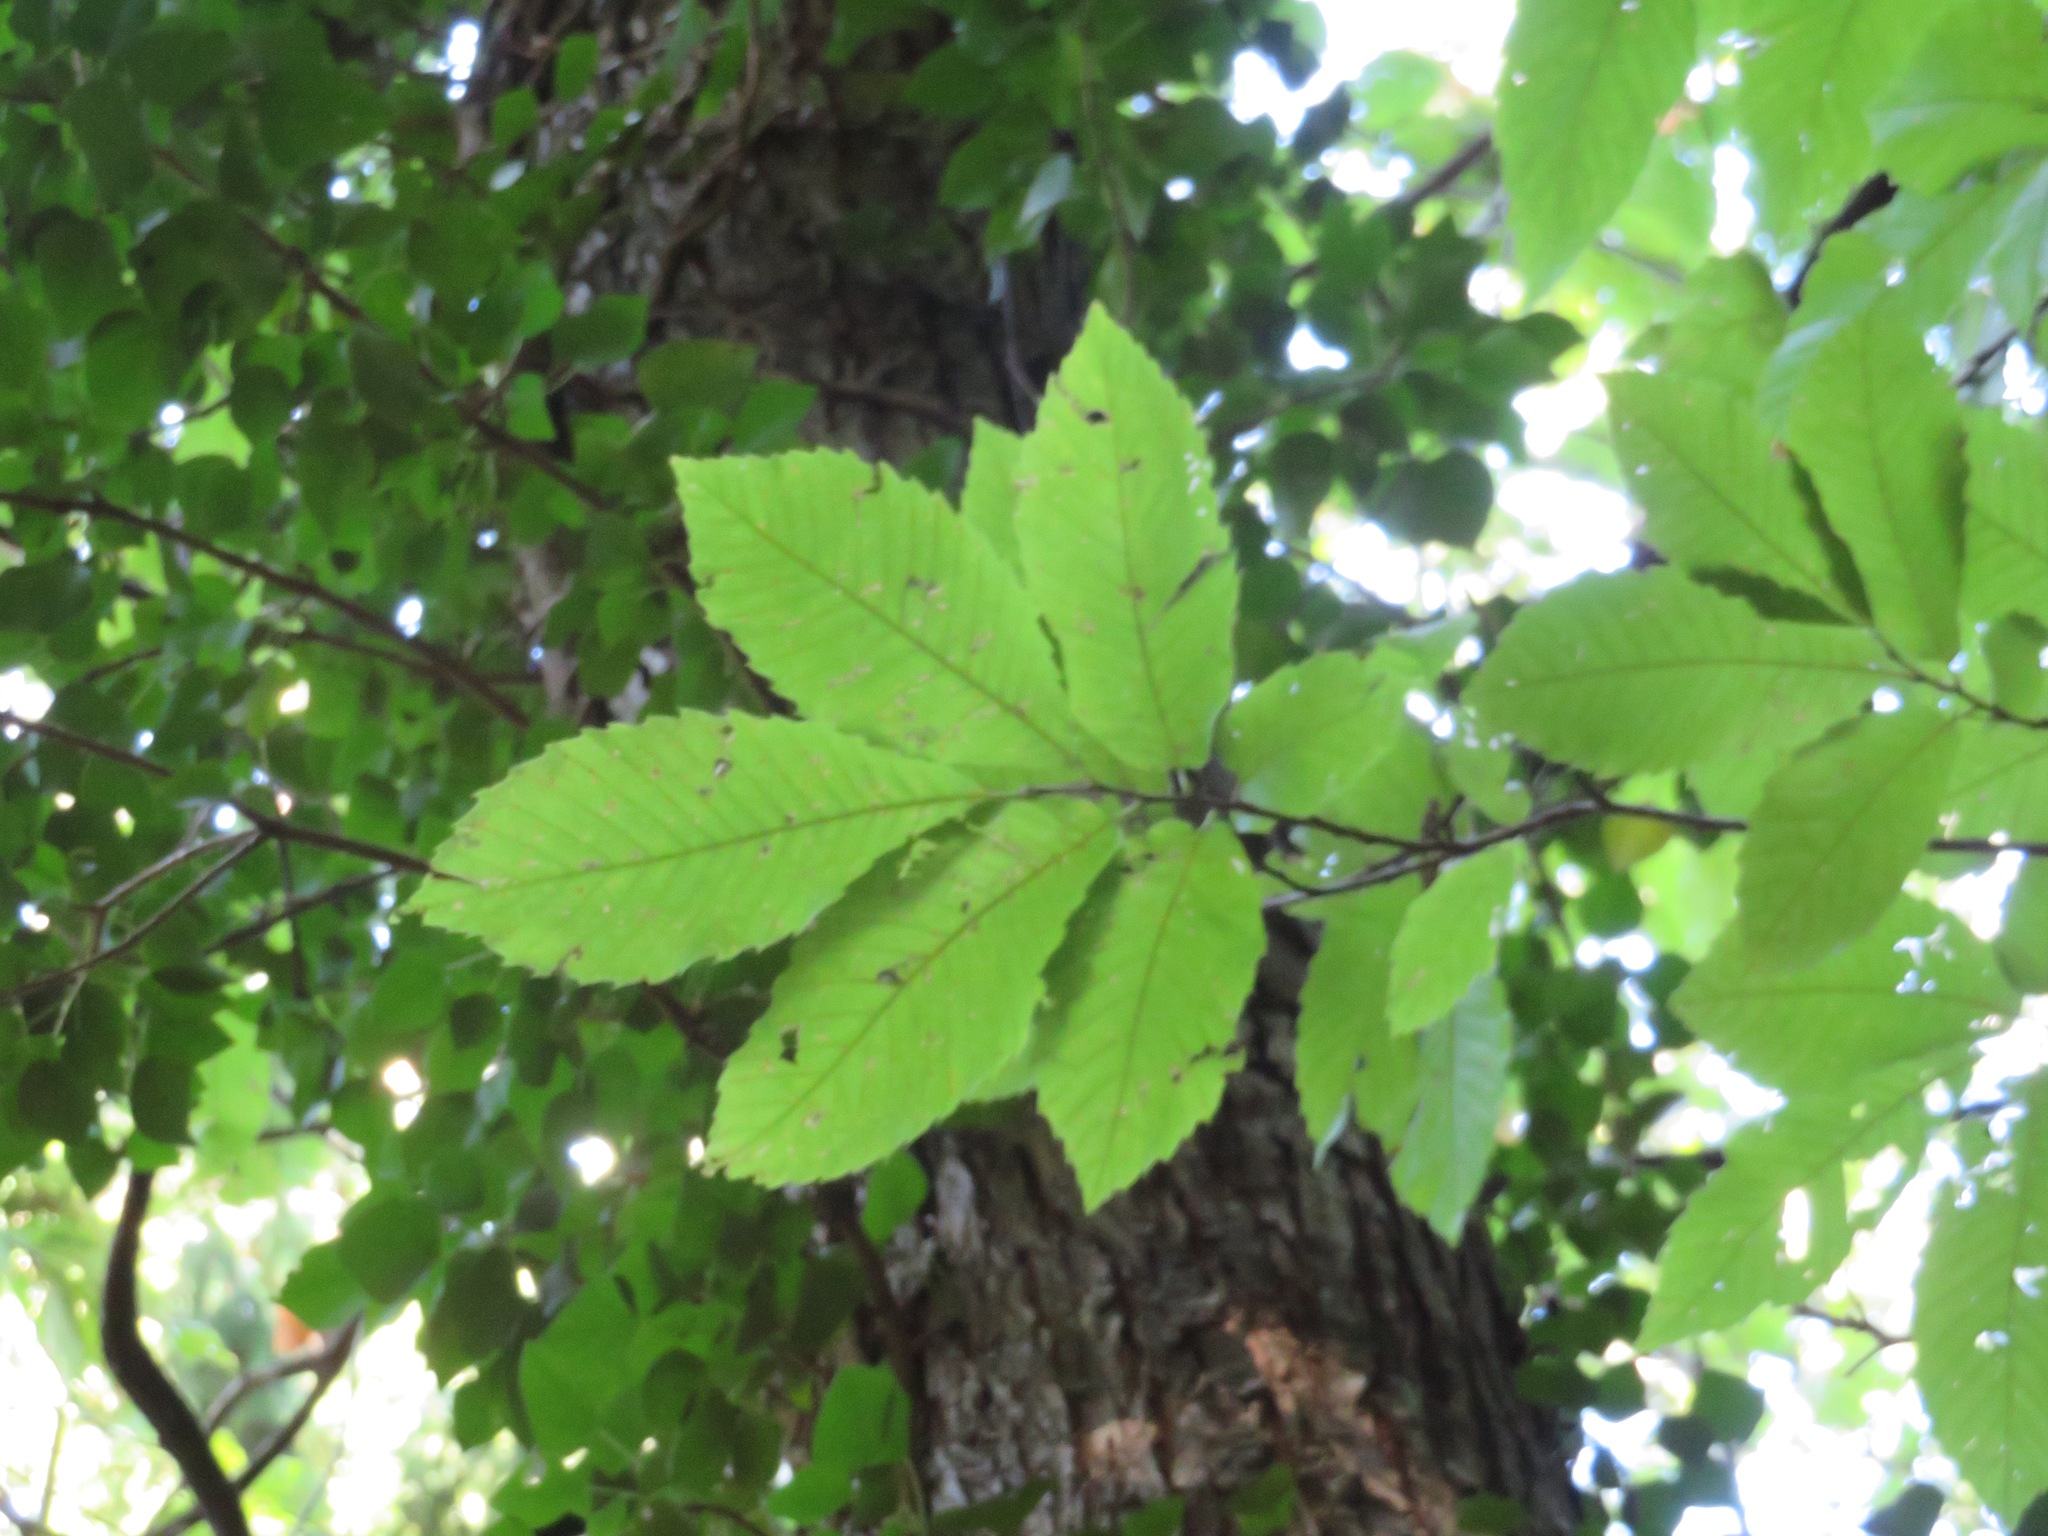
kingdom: Plantae
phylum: Tracheophyta
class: Magnoliopsida
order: Fagales
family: Fagaceae
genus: Castanea
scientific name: Castanea sativa
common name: Sweet chestnut
